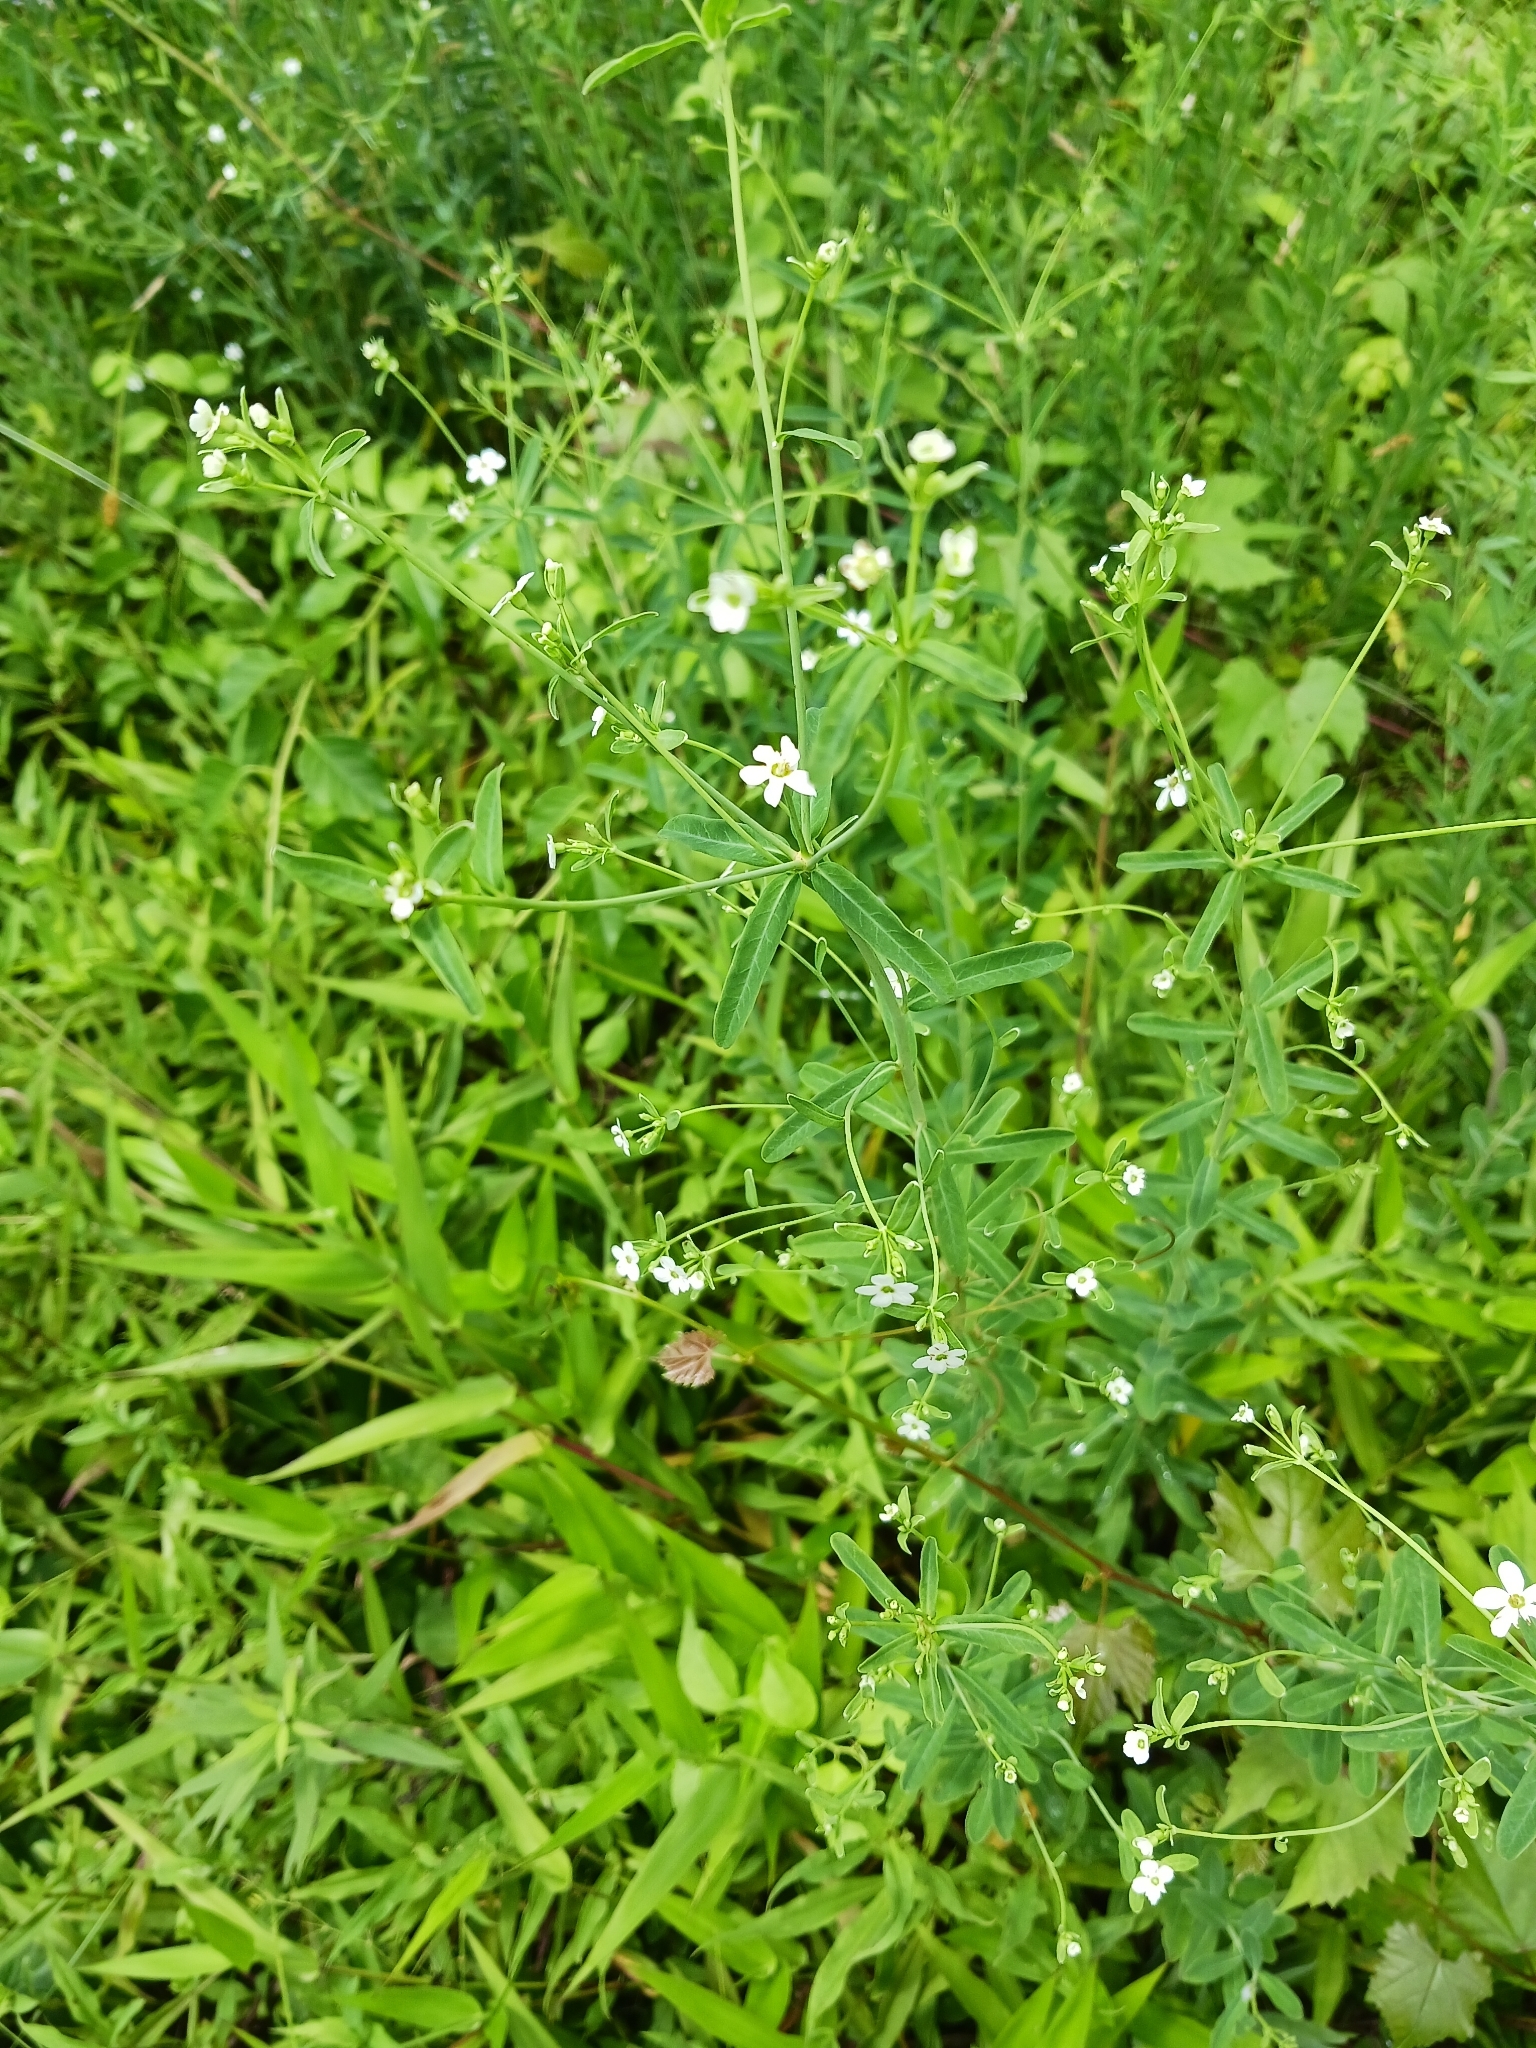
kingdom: Plantae
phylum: Tracheophyta
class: Magnoliopsida
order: Malpighiales
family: Euphorbiaceae
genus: Euphorbia
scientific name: Euphorbia corollata
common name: Flowering spurge
